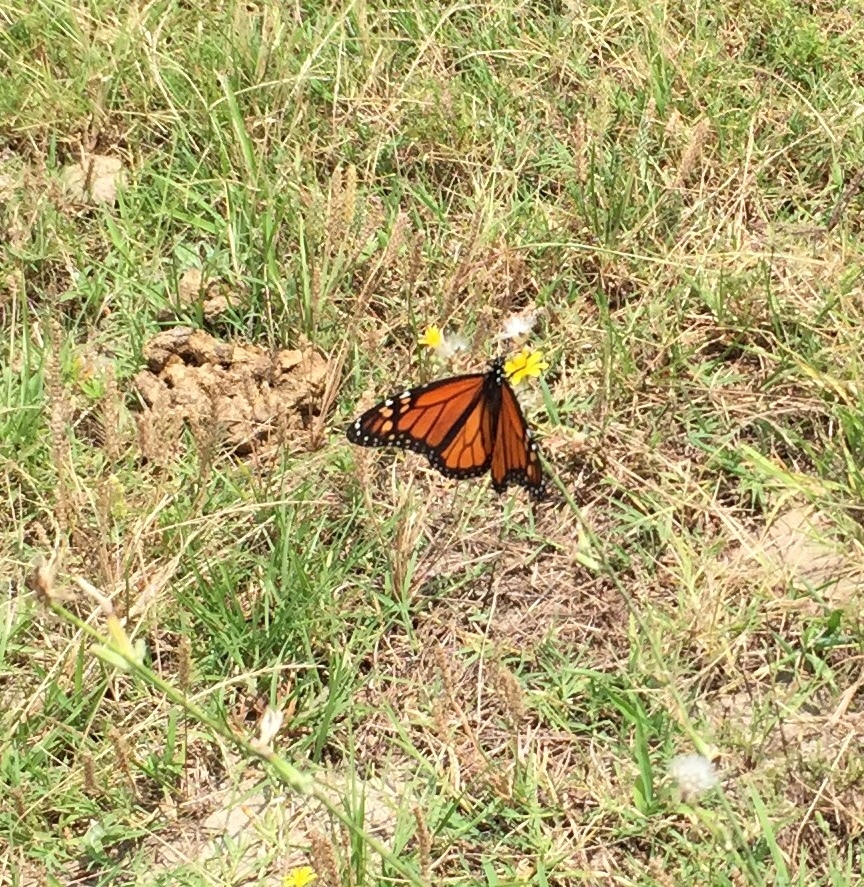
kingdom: Animalia
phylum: Arthropoda
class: Insecta
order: Lepidoptera
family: Nymphalidae
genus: Danaus
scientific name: Danaus plexippus
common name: Monarch
